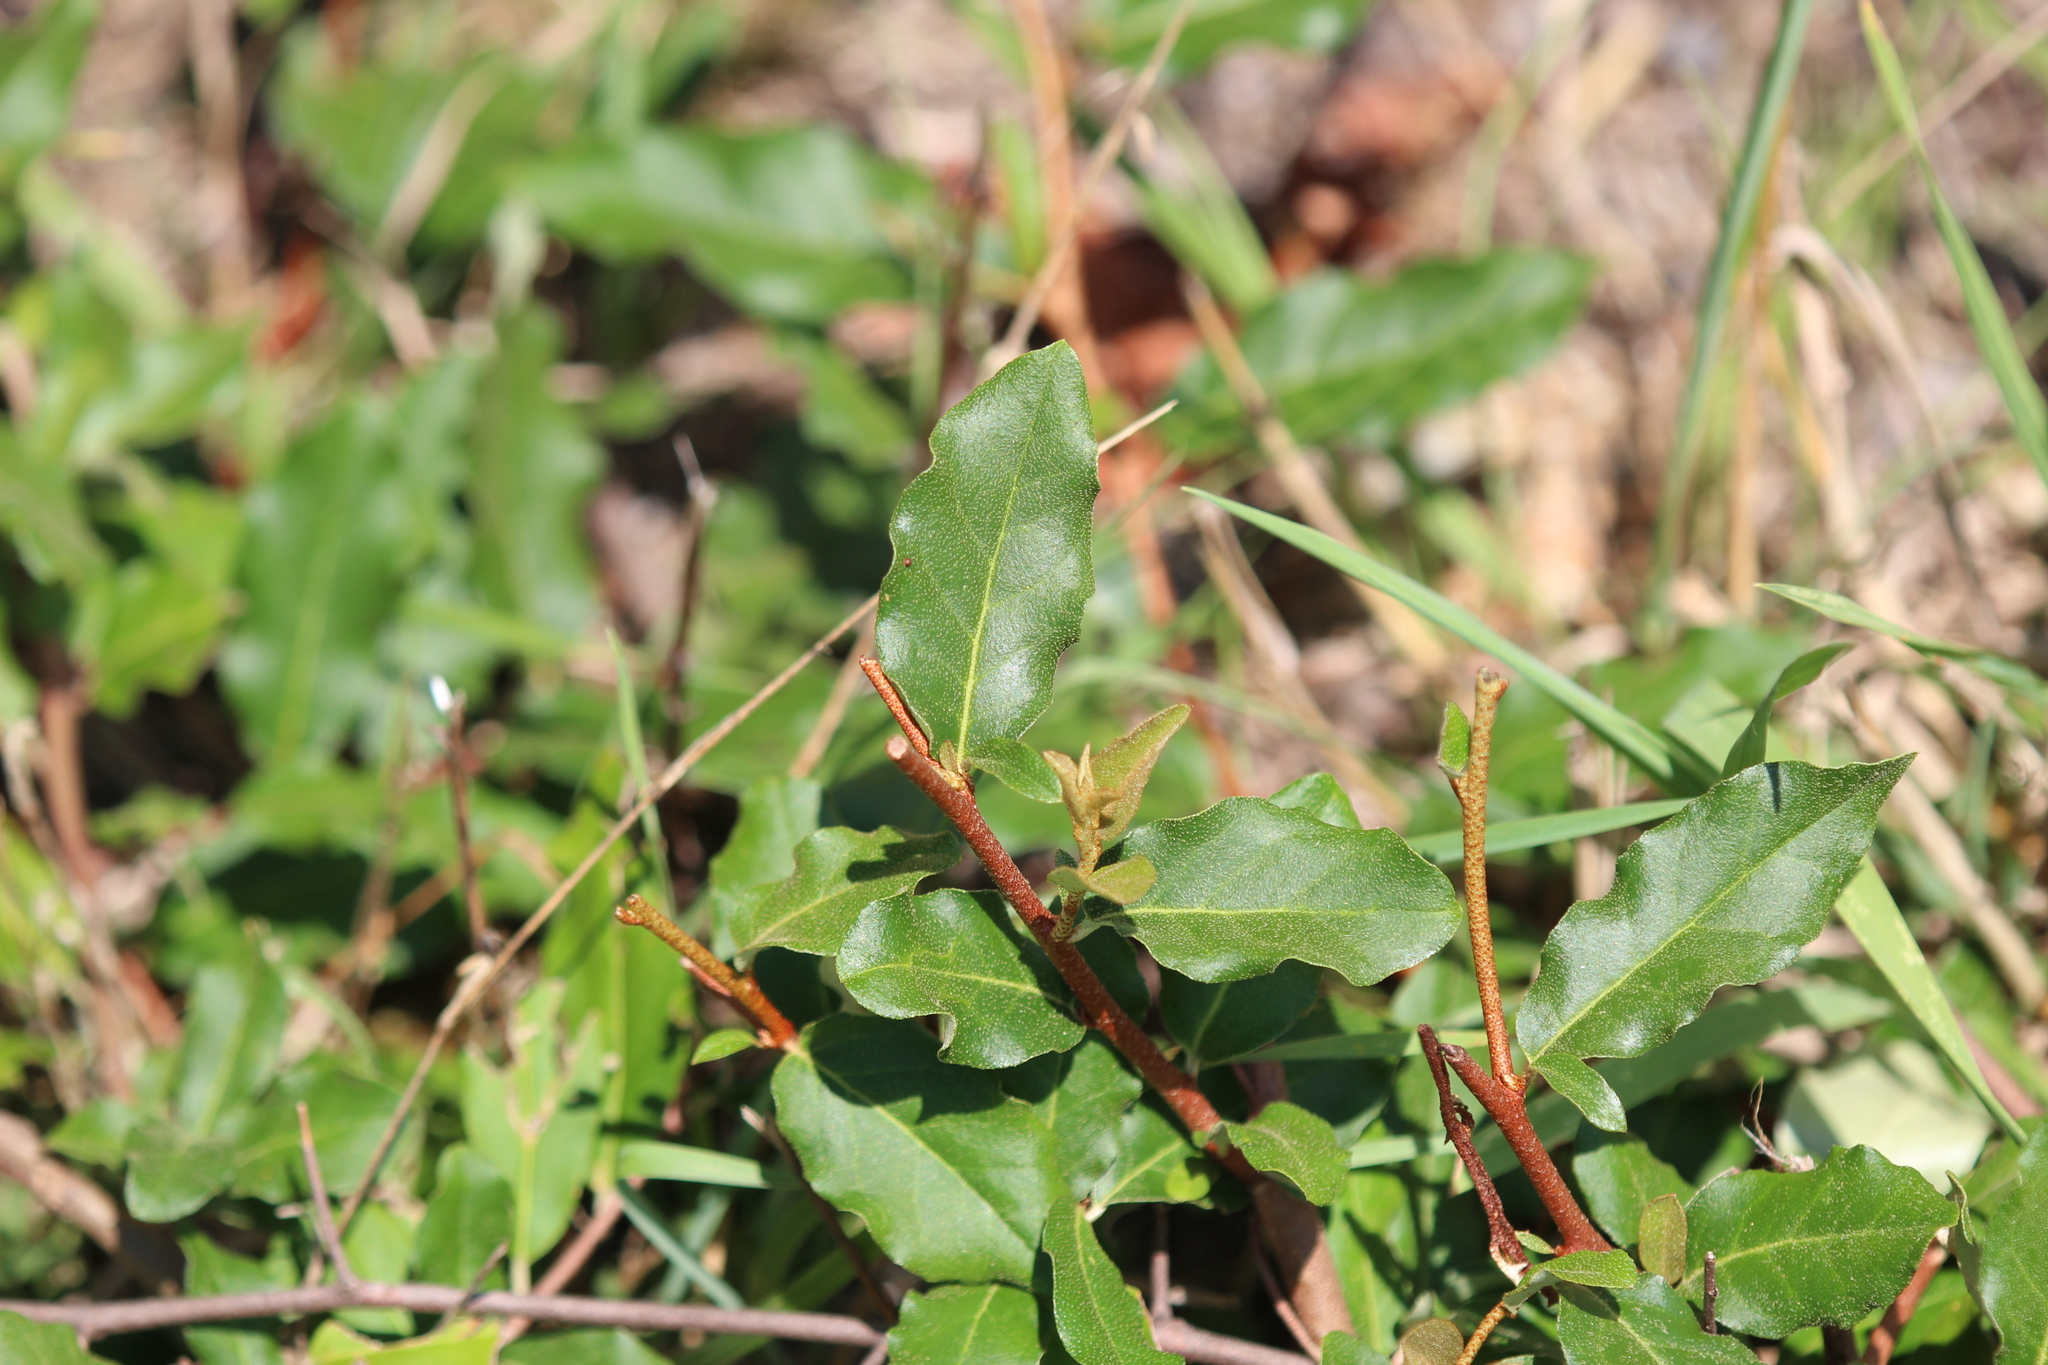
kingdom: Plantae
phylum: Tracheophyta
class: Magnoliopsida
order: Rosales
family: Elaeagnaceae
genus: Elaeagnus
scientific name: Elaeagnus umbellata
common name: Autumn olive
